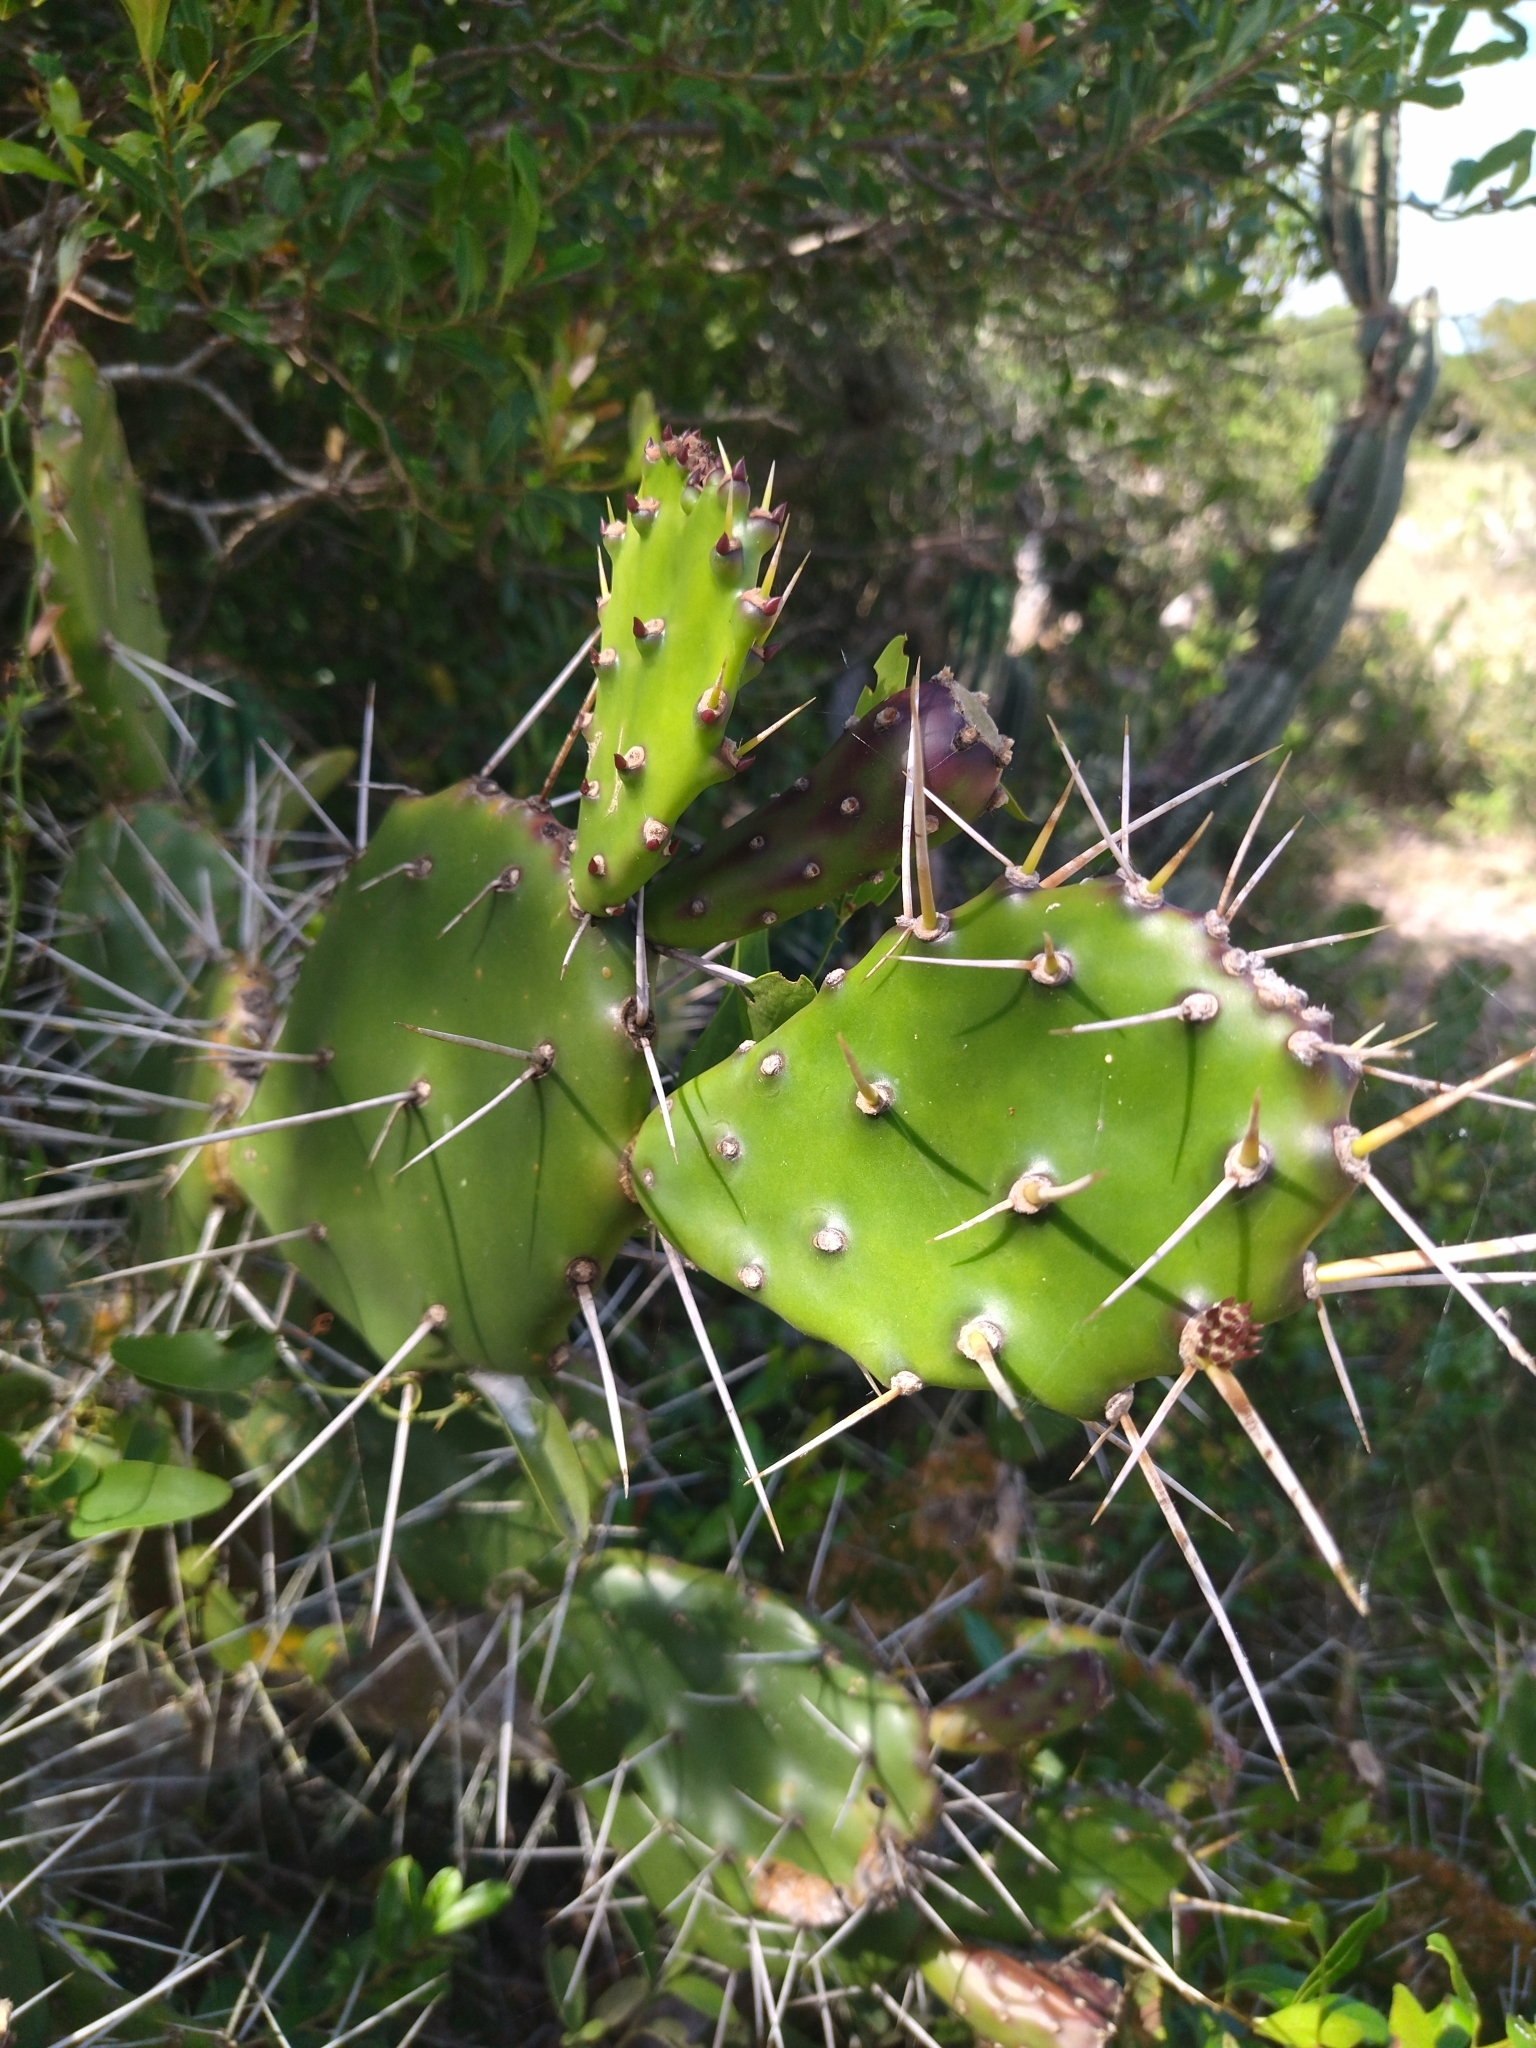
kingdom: Plantae
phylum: Tracheophyta
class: Magnoliopsida
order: Caryophyllales
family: Cactaceae
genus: Opuntia
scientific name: Opuntia arechavaletae
